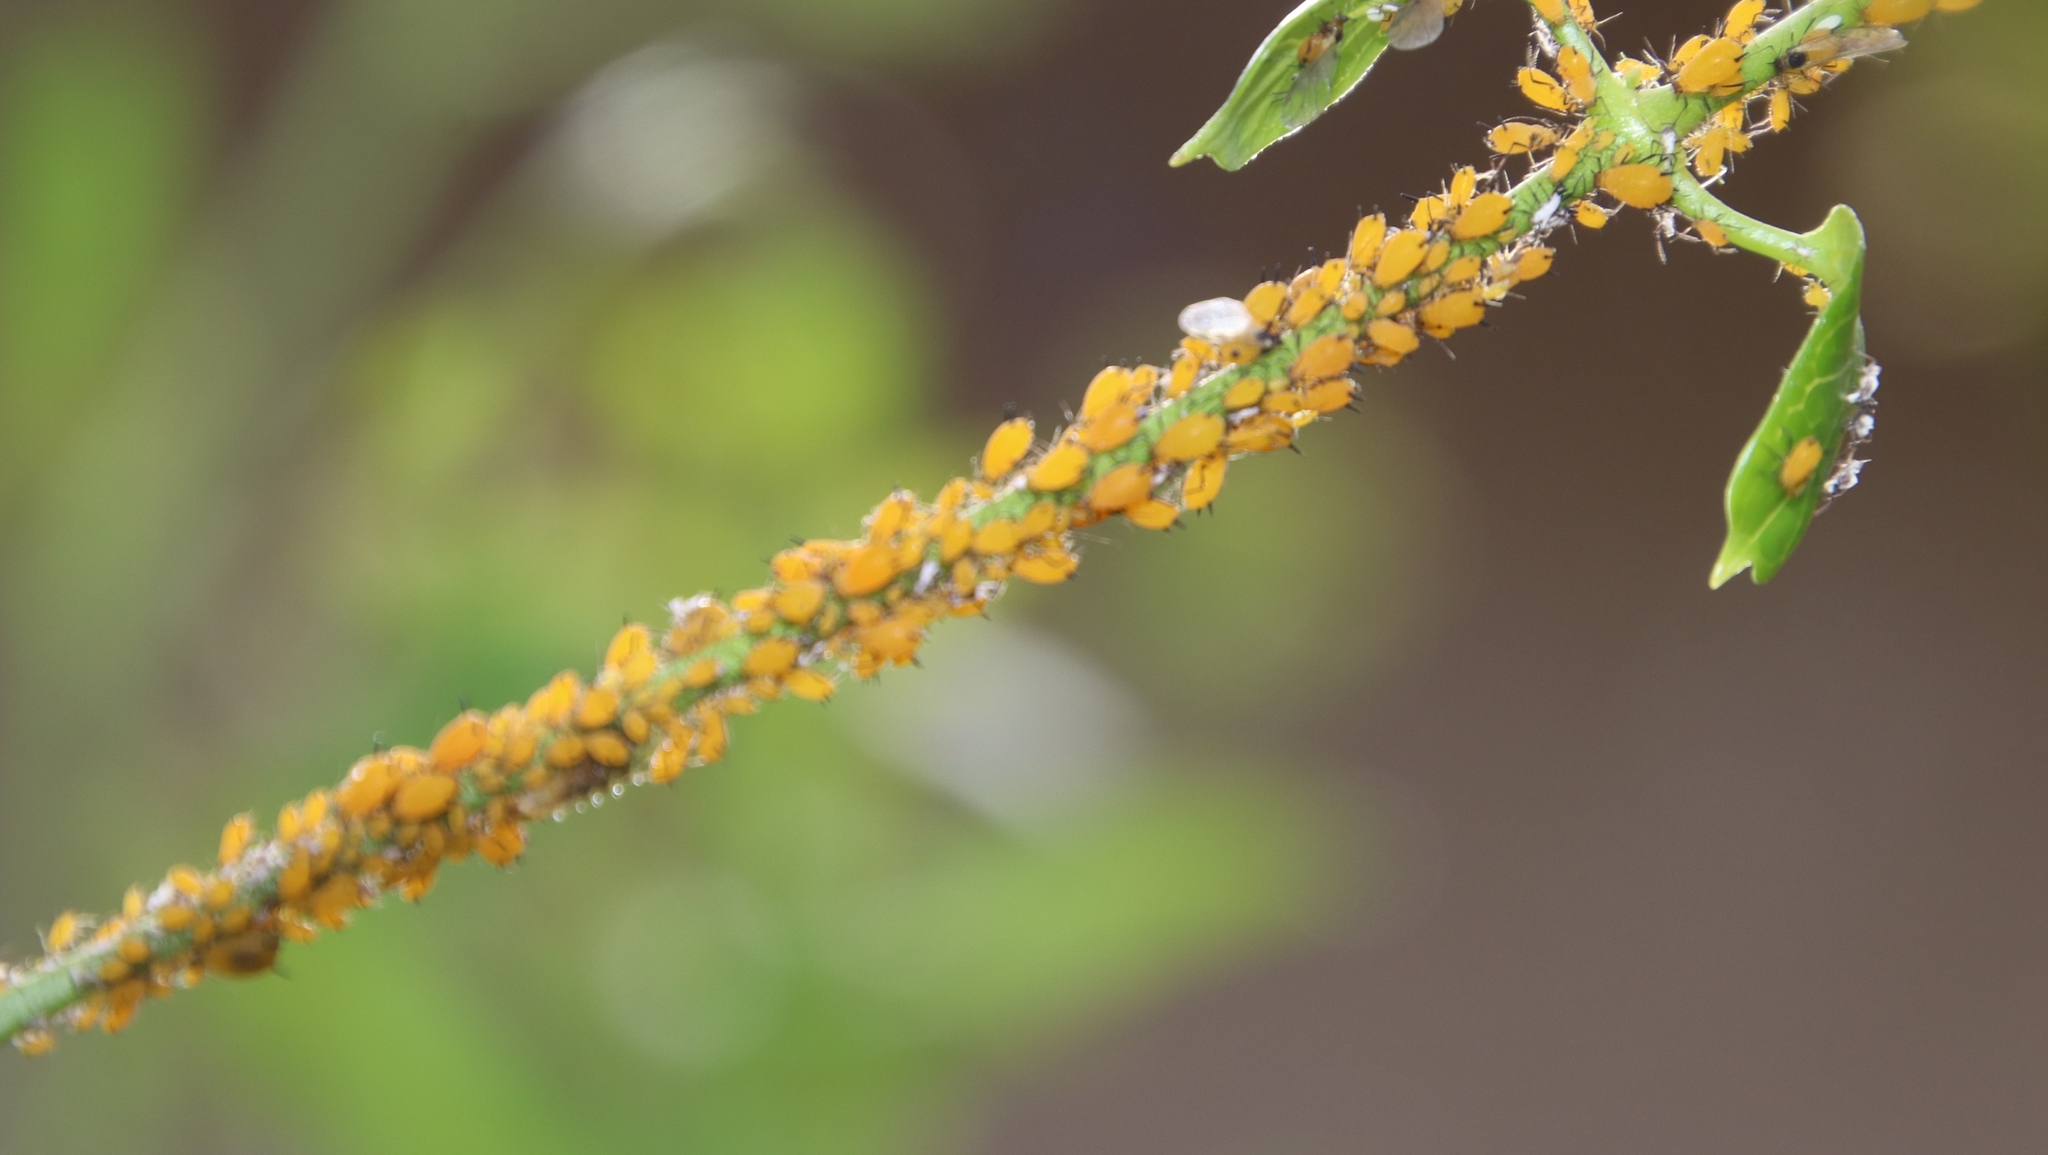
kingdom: Animalia
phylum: Arthropoda
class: Insecta
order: Hemiptera
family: Aphididae
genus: Aphis
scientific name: Aphis nerii
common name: Oleander aphid
